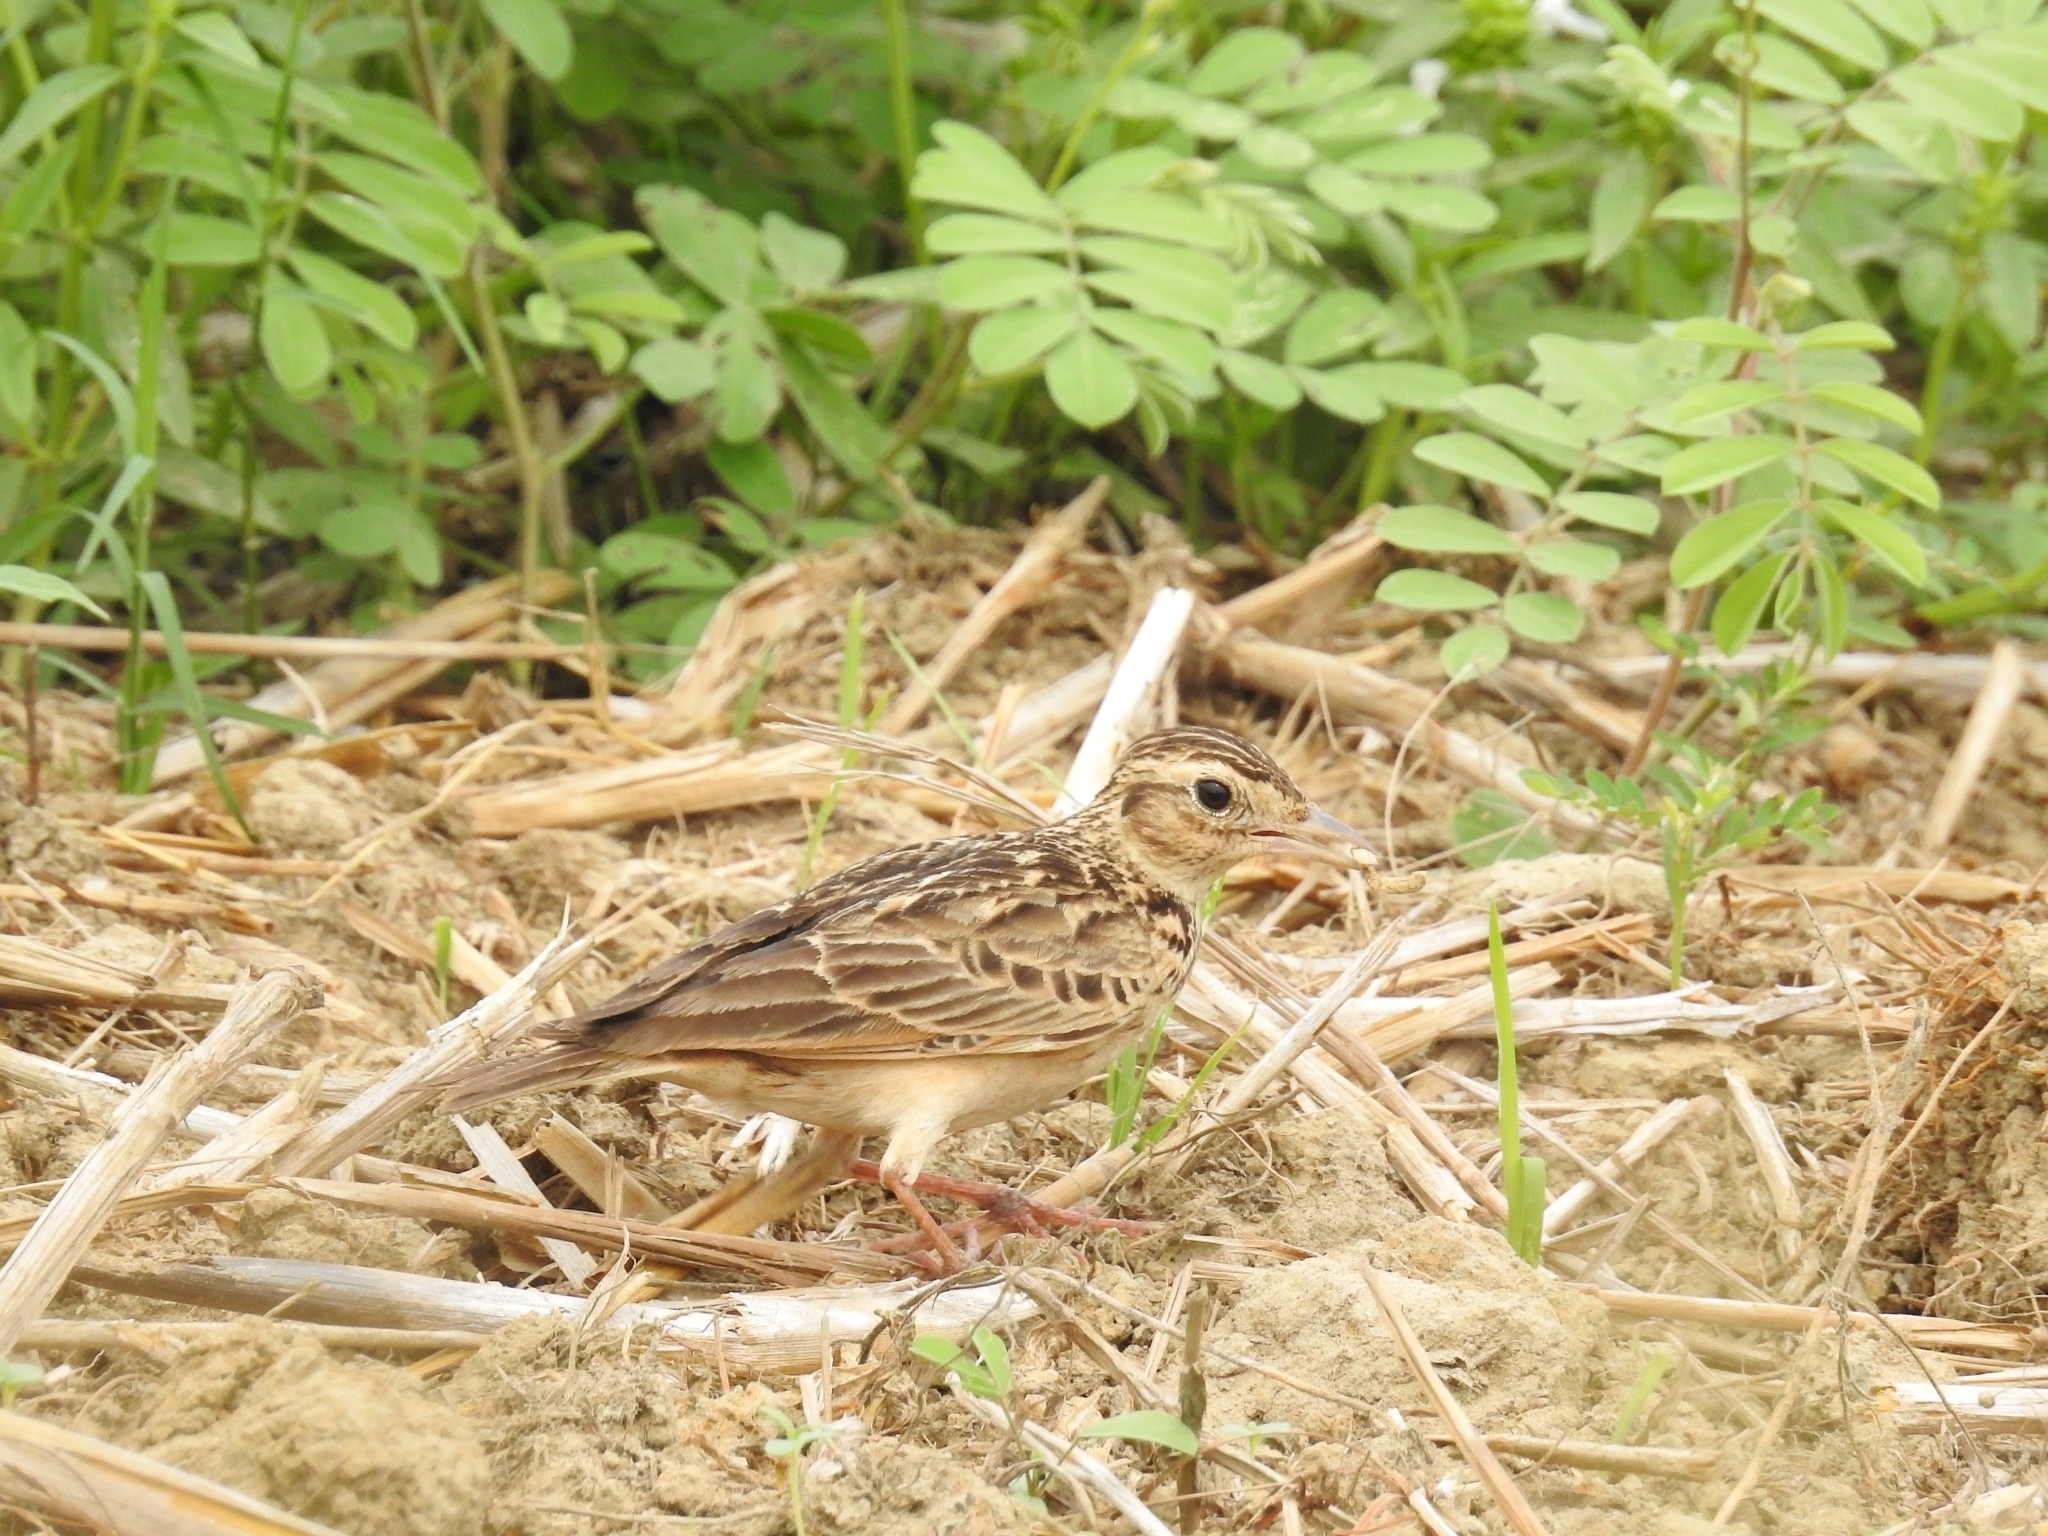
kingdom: Animalia
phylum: Chordata
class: Aves
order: Passeriformes
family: Alaudidae
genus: Mirafra
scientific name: Mirafra affinis
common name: Jerdon's bushlark
